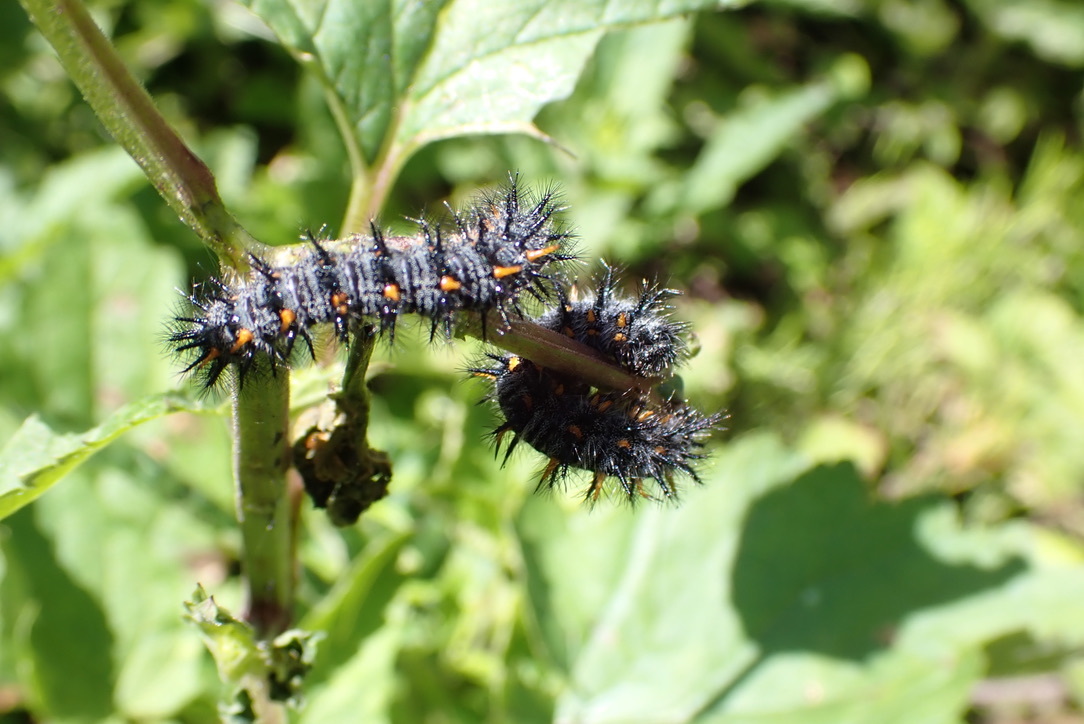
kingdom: Animalia
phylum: Arthropoda
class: Insecta
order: Lepidoptera
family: Nymphalidae
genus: Occidryas
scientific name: Occidryas chalcedona
